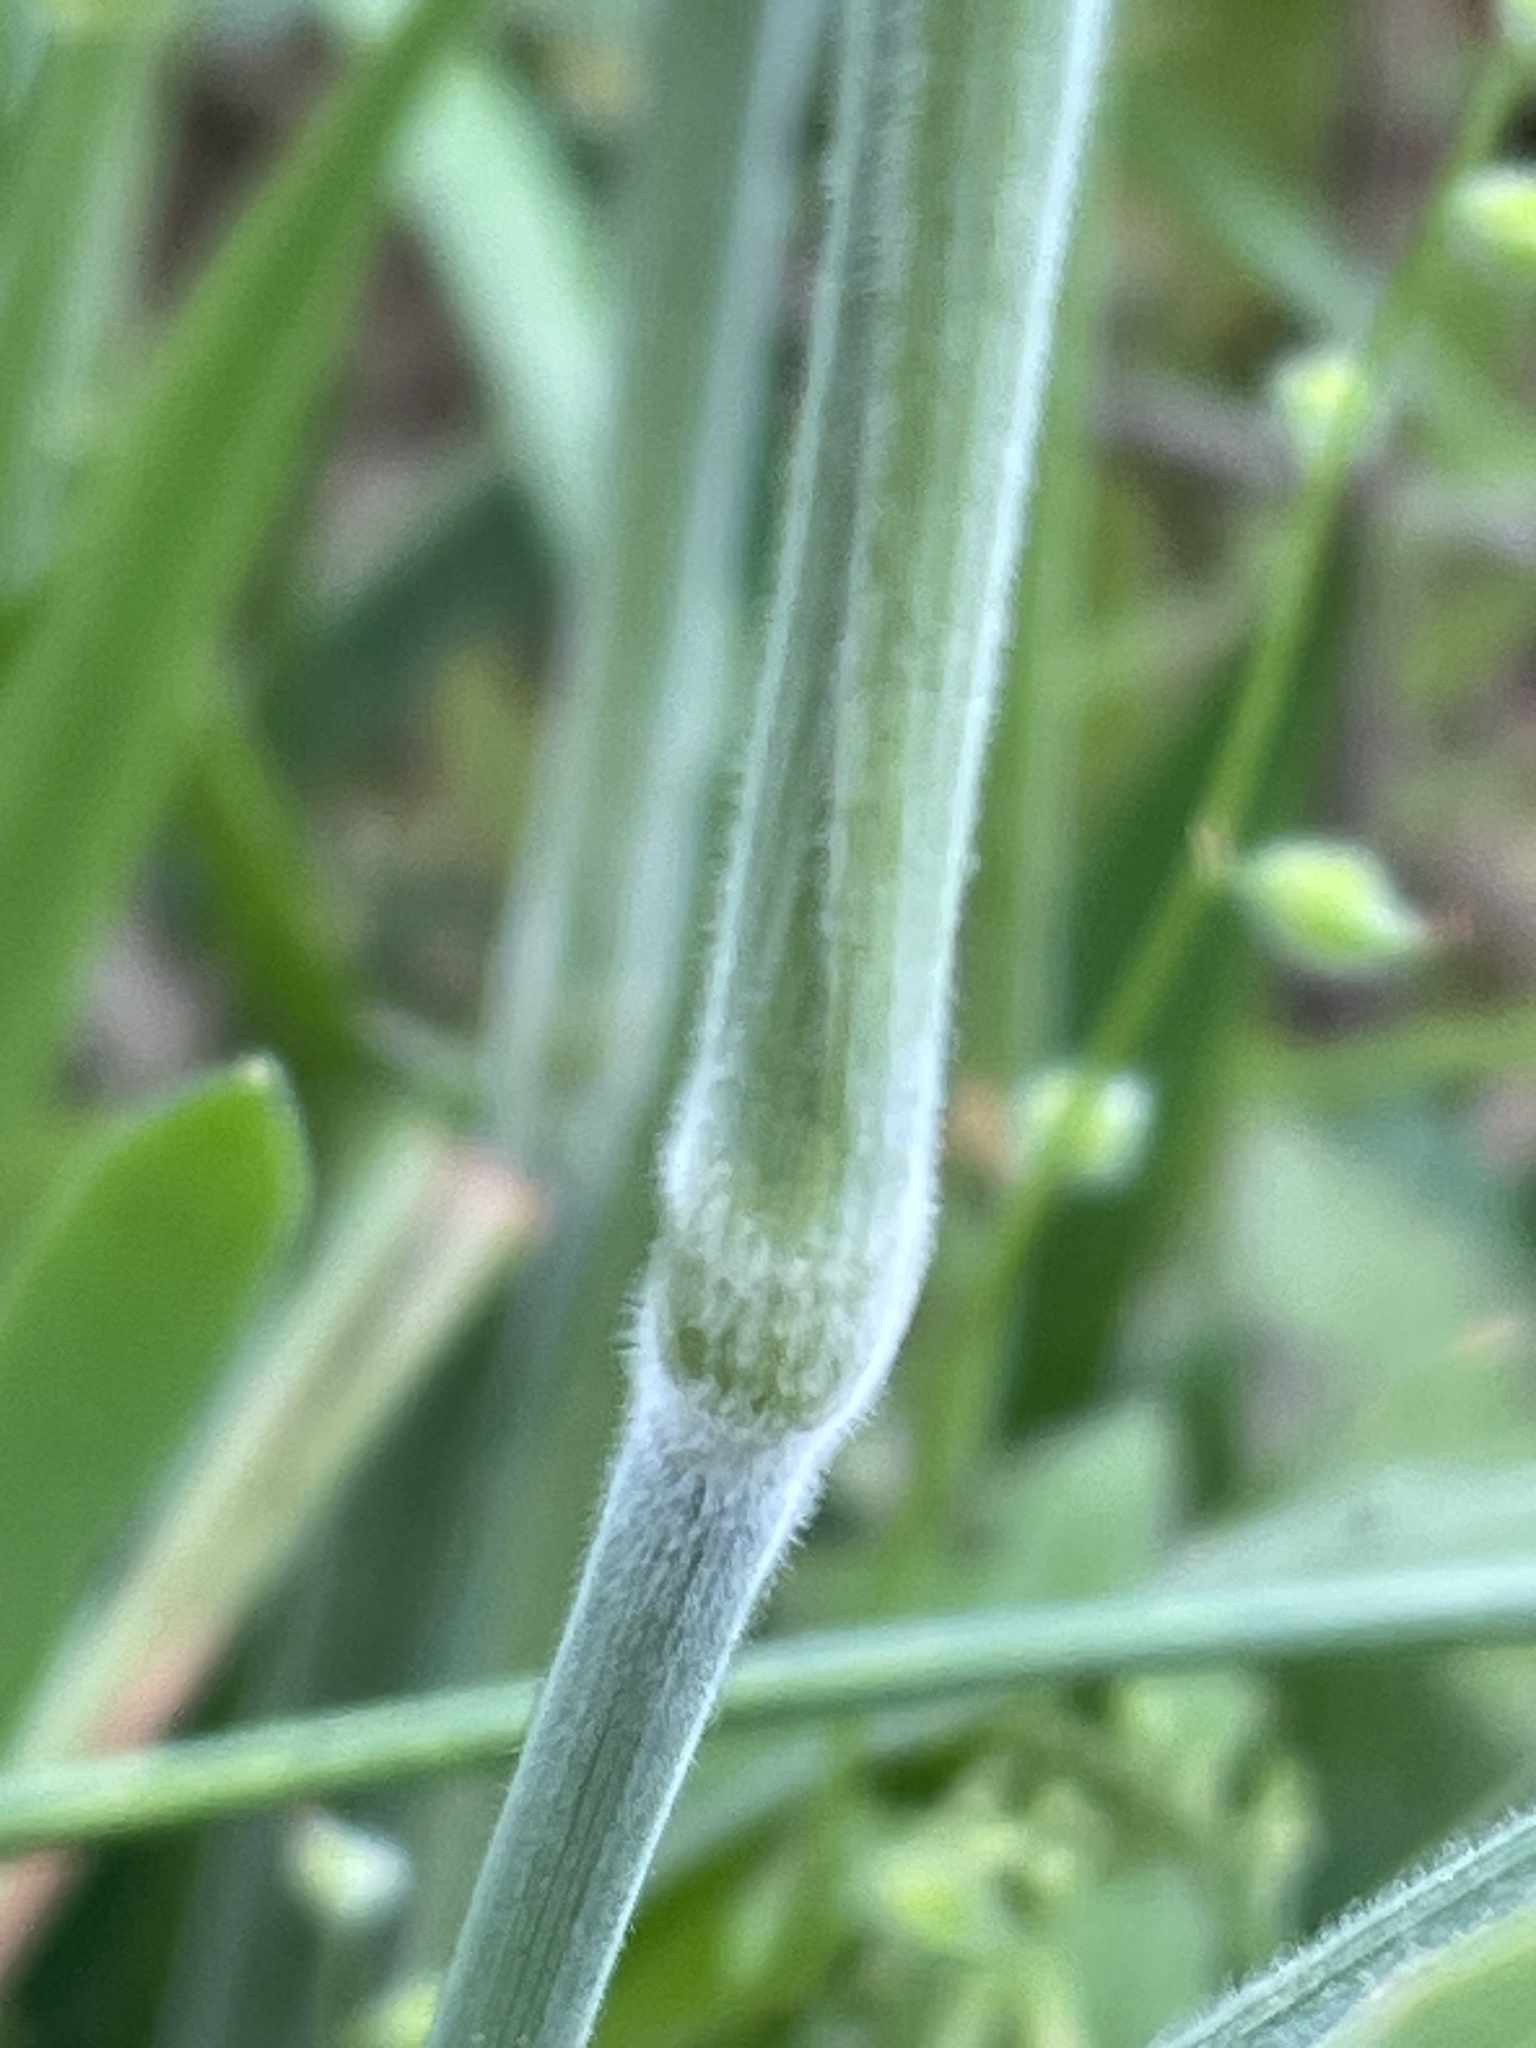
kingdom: Plantae
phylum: Tracheophyta
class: Liliopsida
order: Poales
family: Poaceae
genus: Holcus
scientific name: Holcus lanatus
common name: Yorkshire-fog
